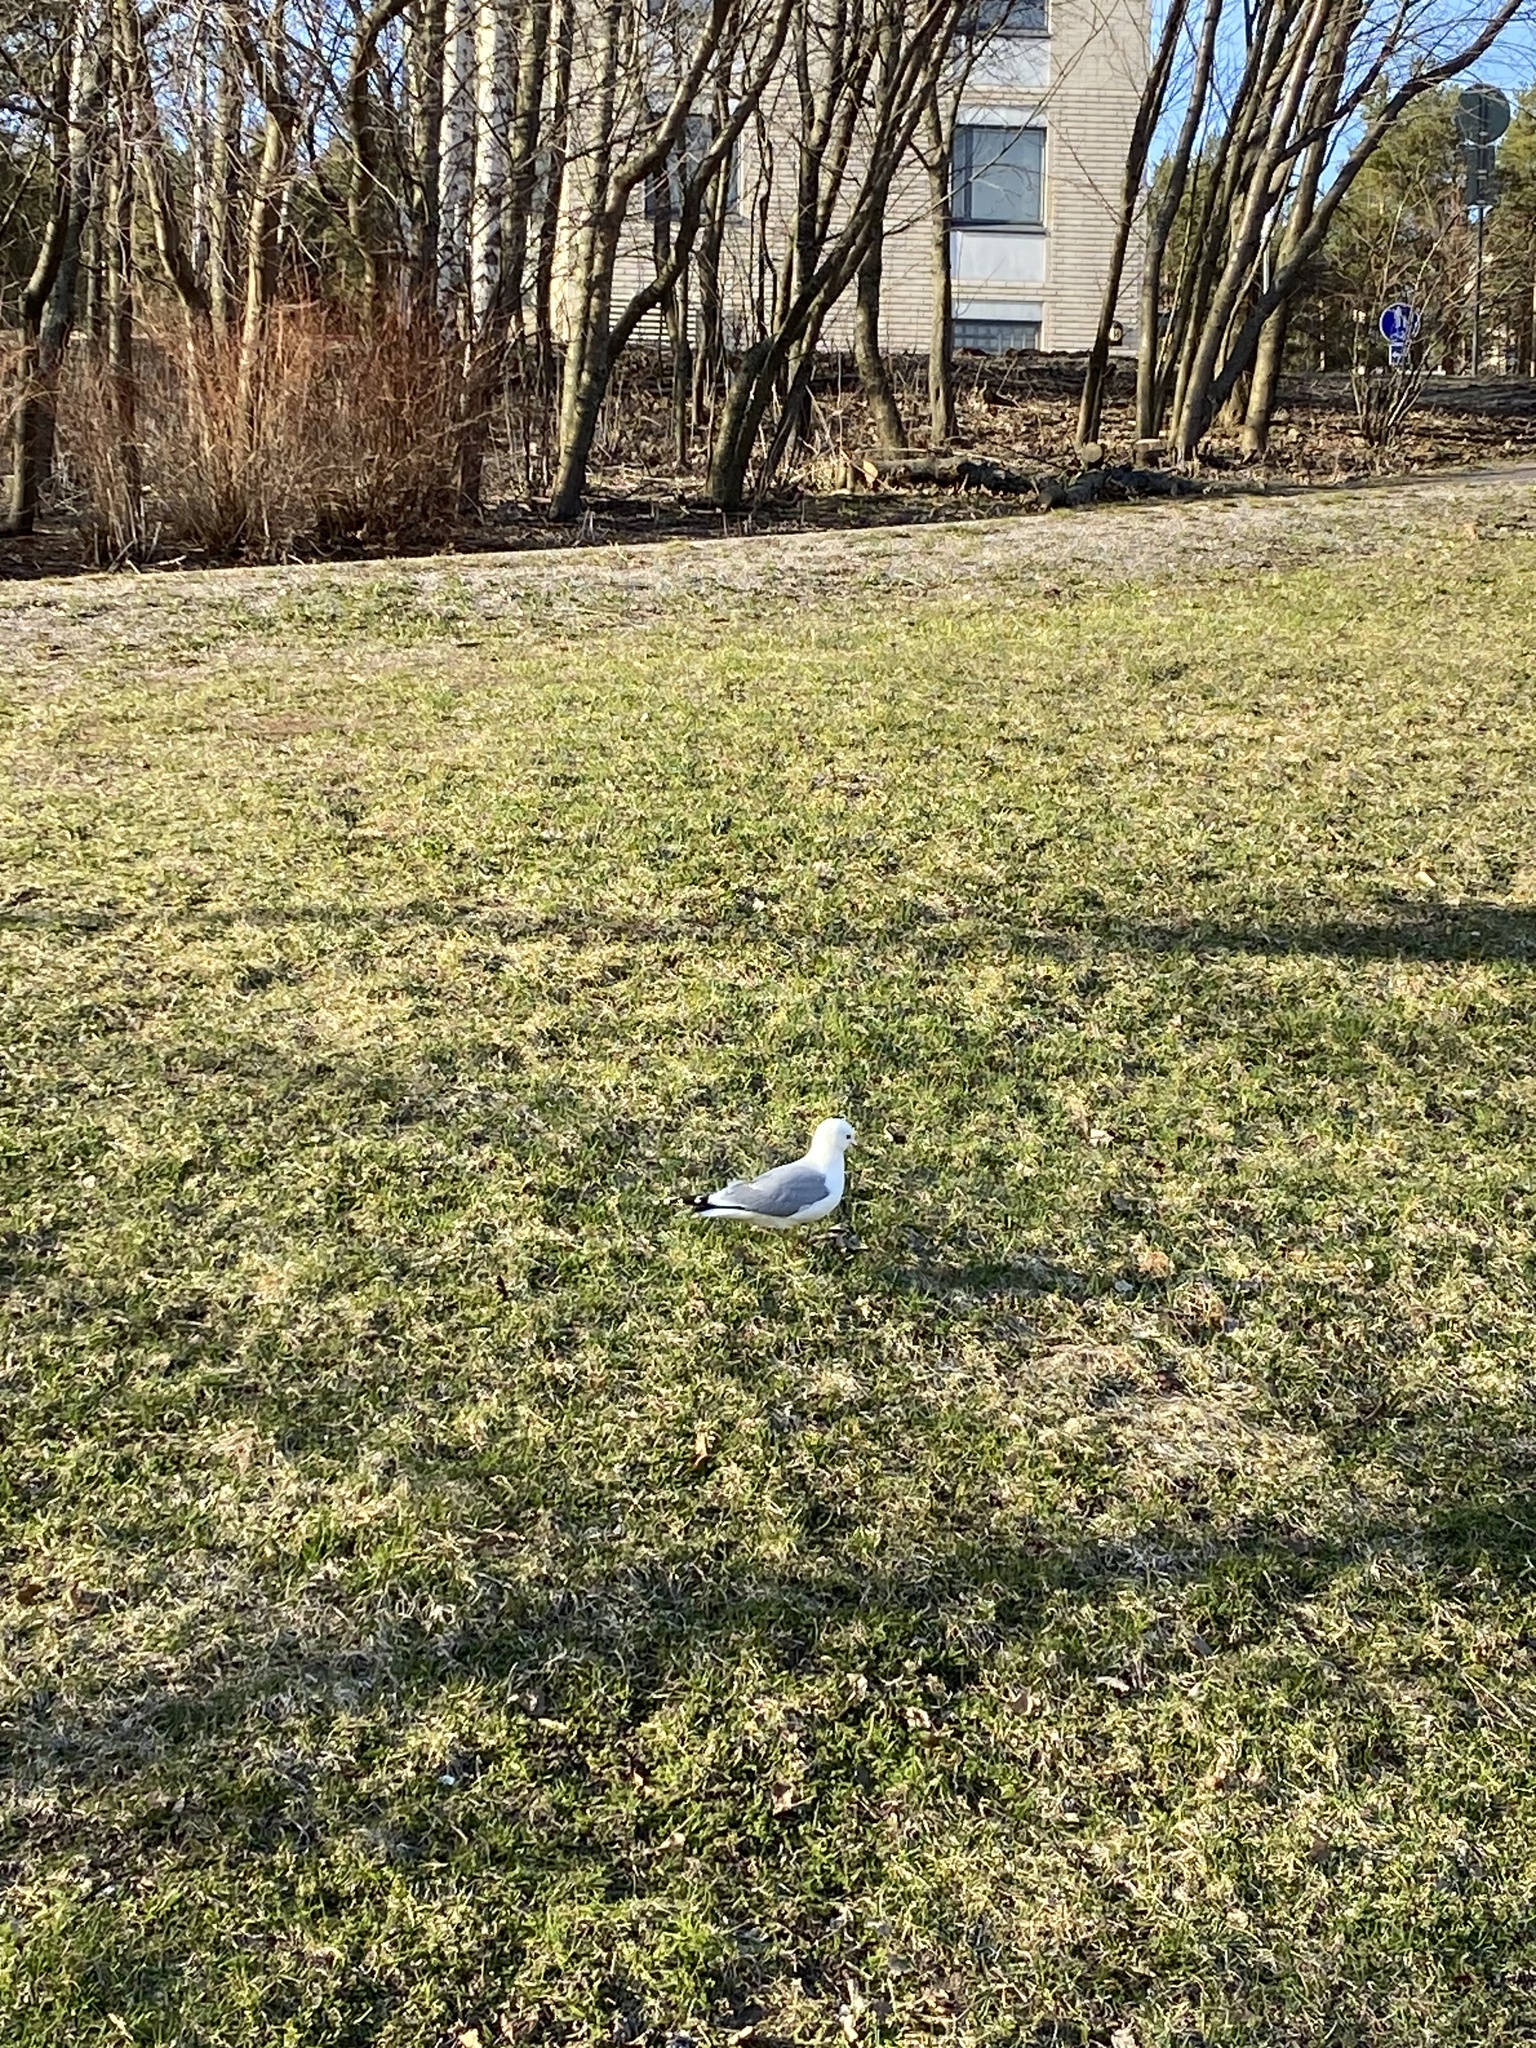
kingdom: Animalia
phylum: Chordata
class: Aves
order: Charadriiformes
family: Laridae
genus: Larus
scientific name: Larus canus
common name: Mew gull
